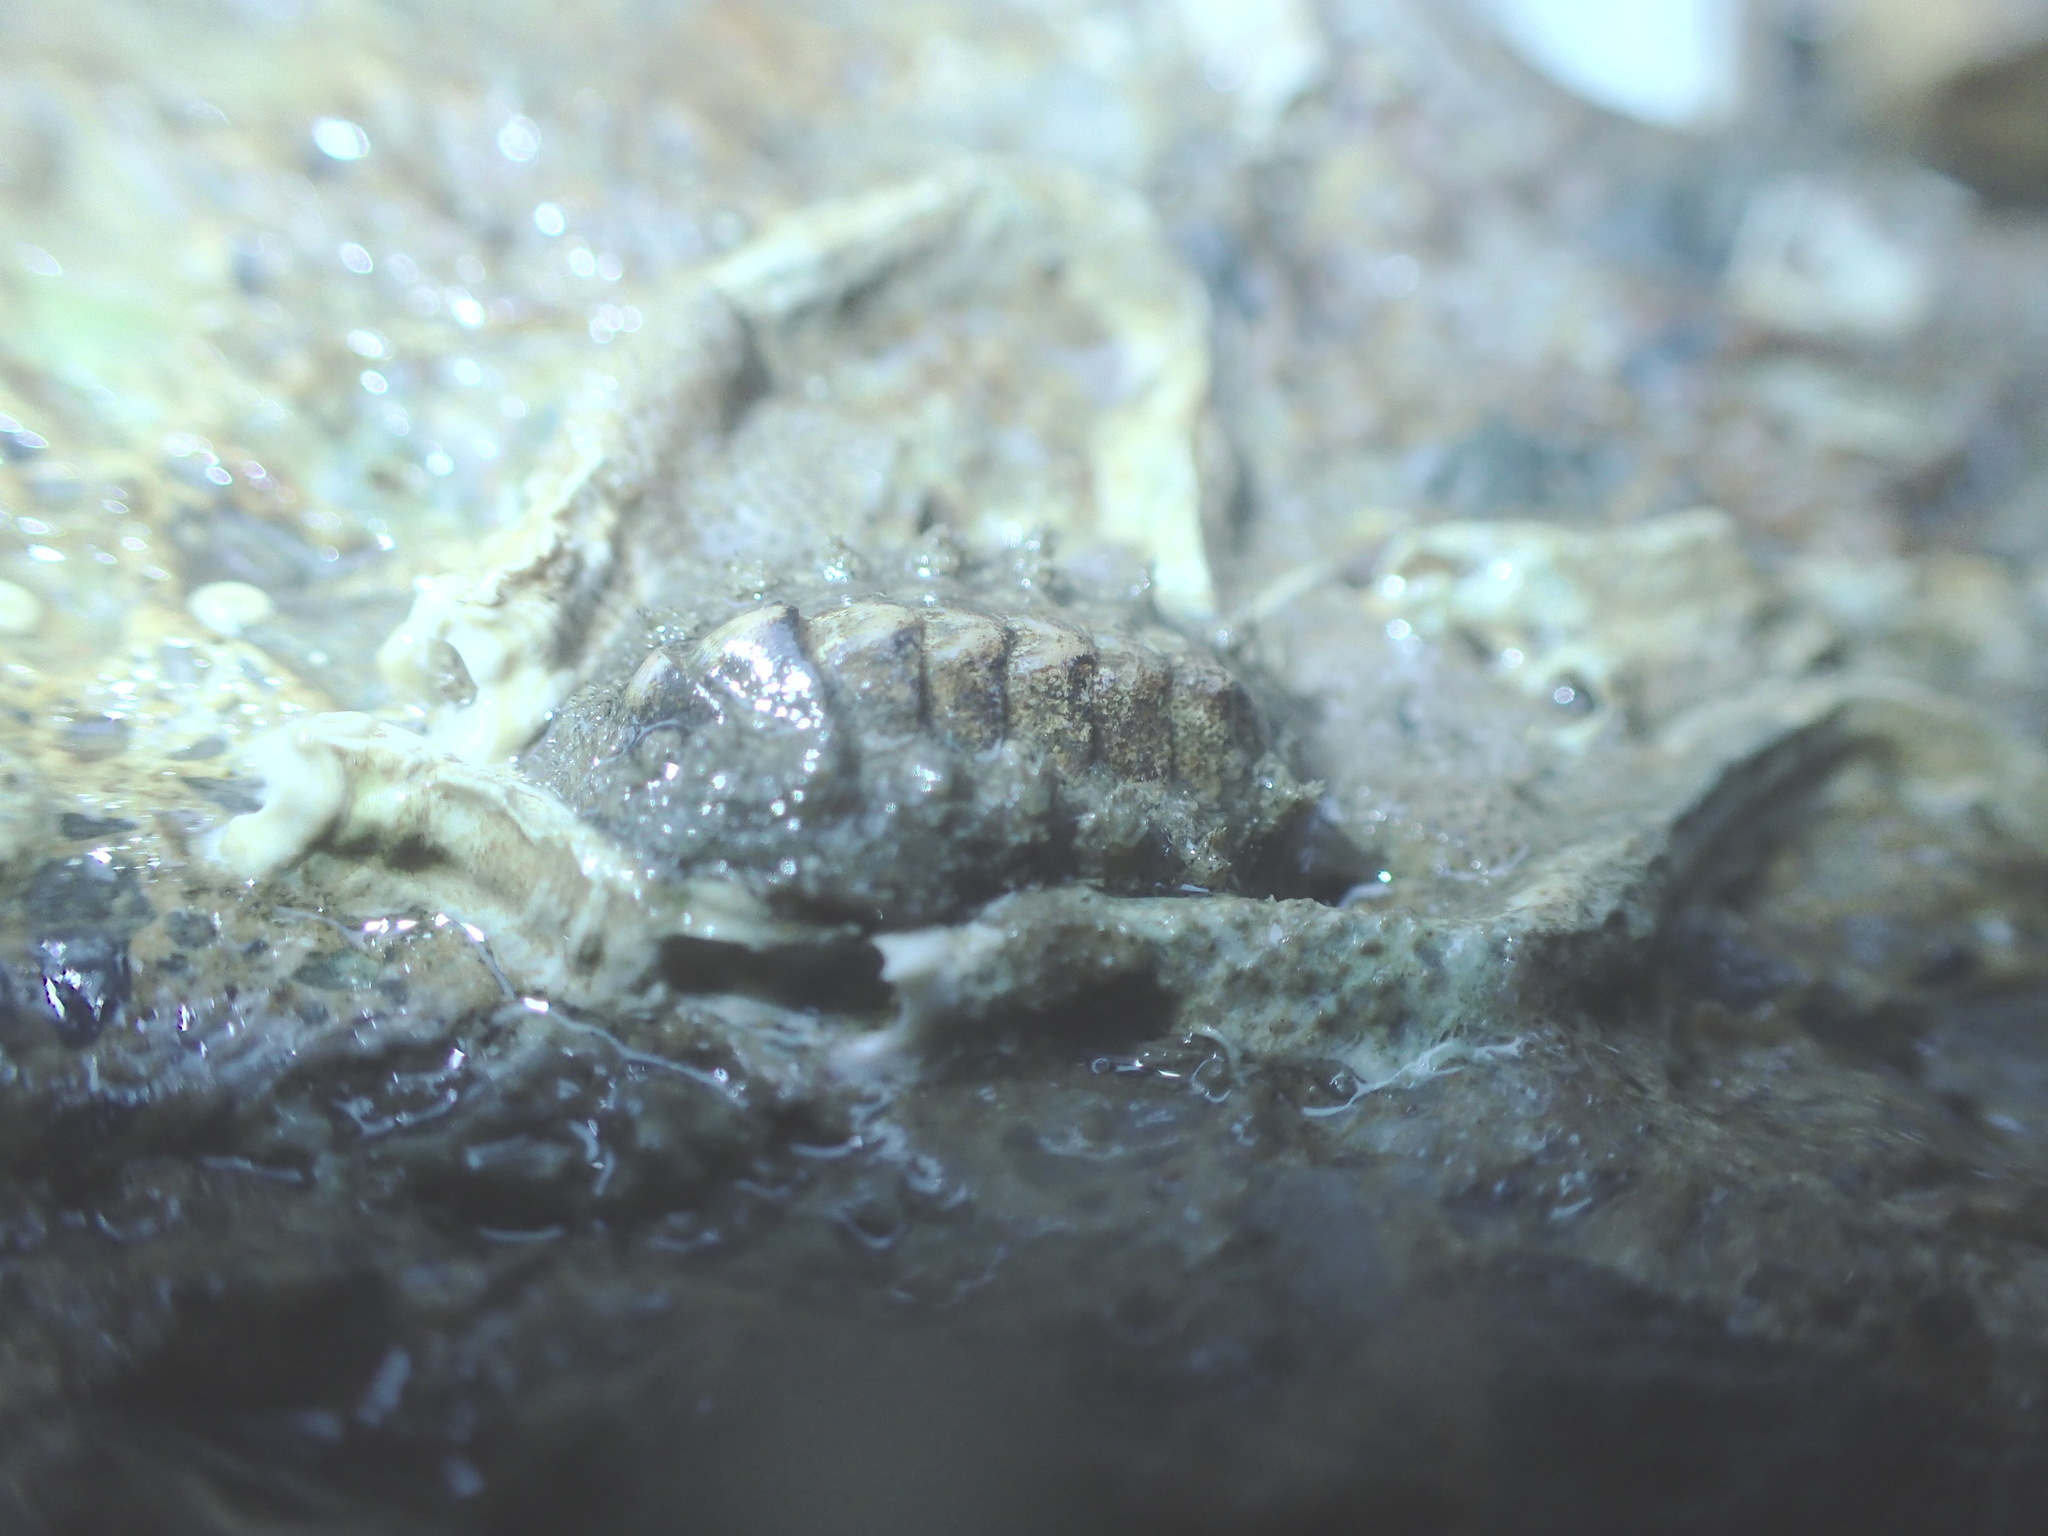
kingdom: Animalia
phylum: Mollusca
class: Polyplacophora
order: Chitonida
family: Acanthochitonidae
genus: Acanthochitona
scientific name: Acanthochitona crinita
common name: Bristly mail chiton
